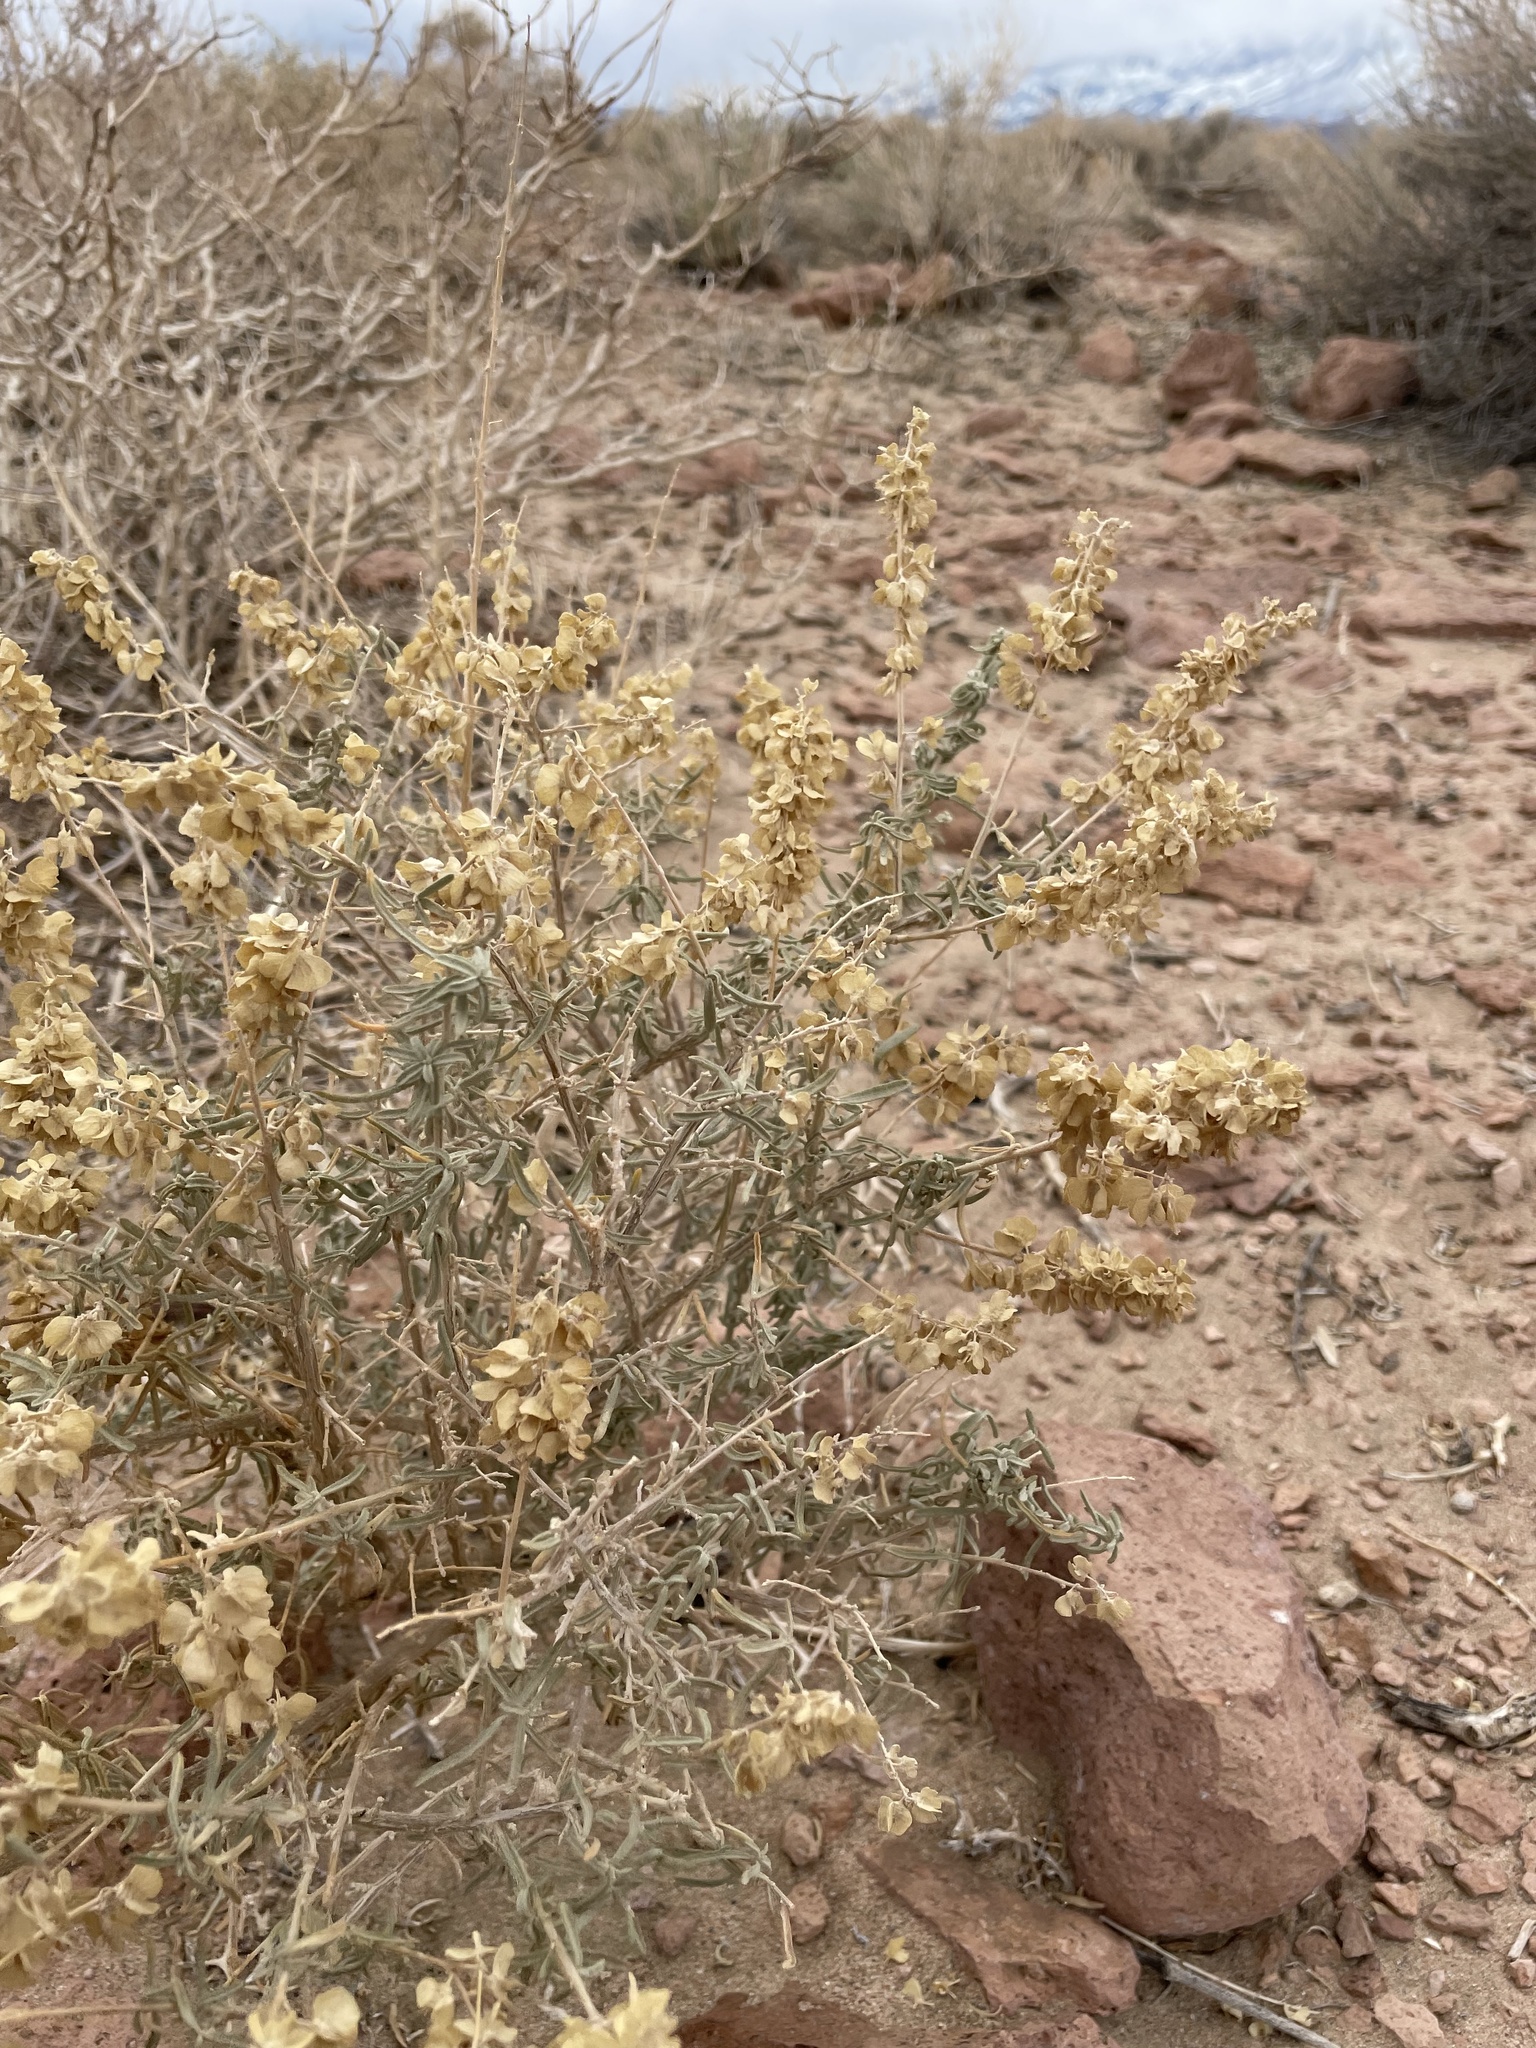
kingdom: Plantae
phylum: Tracheophyta
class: Magnoliopsida
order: Caryophyllales
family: Amaranthaceae
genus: Atriplex
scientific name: Atriplex canescens
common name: Four-wing saltbush
